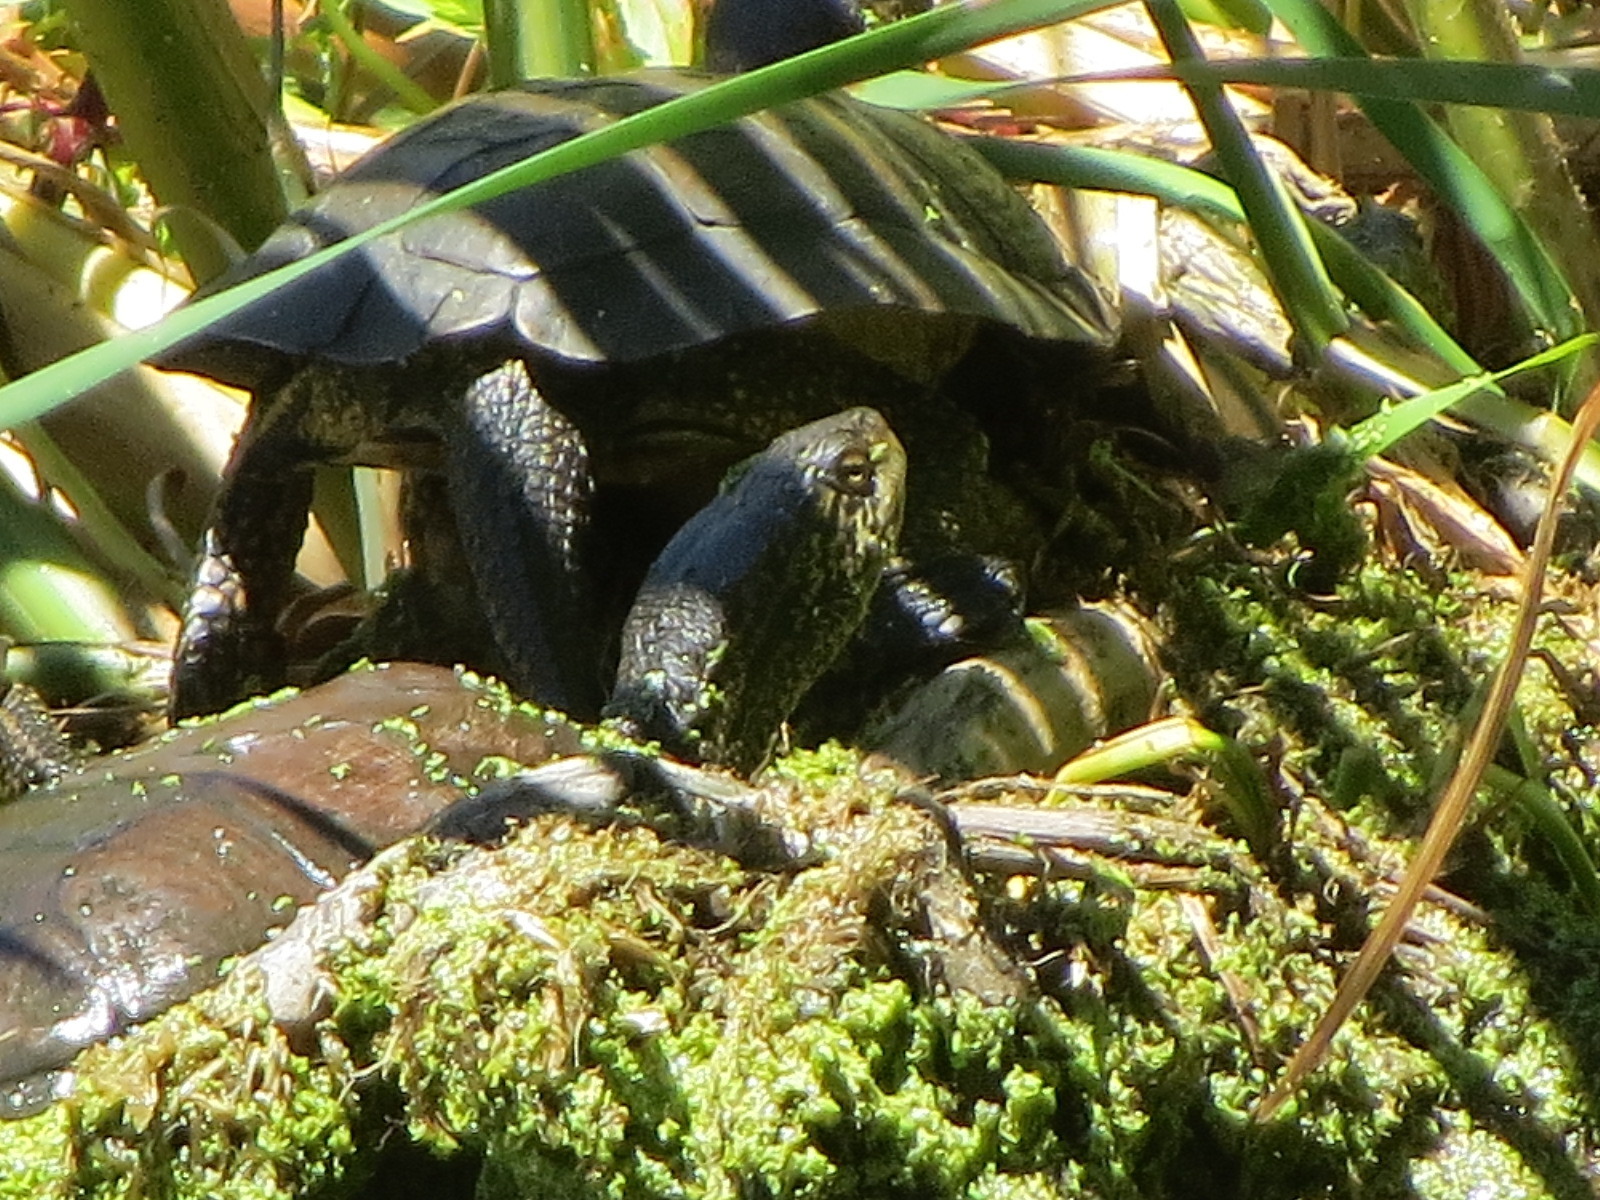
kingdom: Animalia
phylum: Chordata
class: Testudines
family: Emydidae
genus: Actinemys
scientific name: Actinemys marmorata
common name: Western pond turtle
